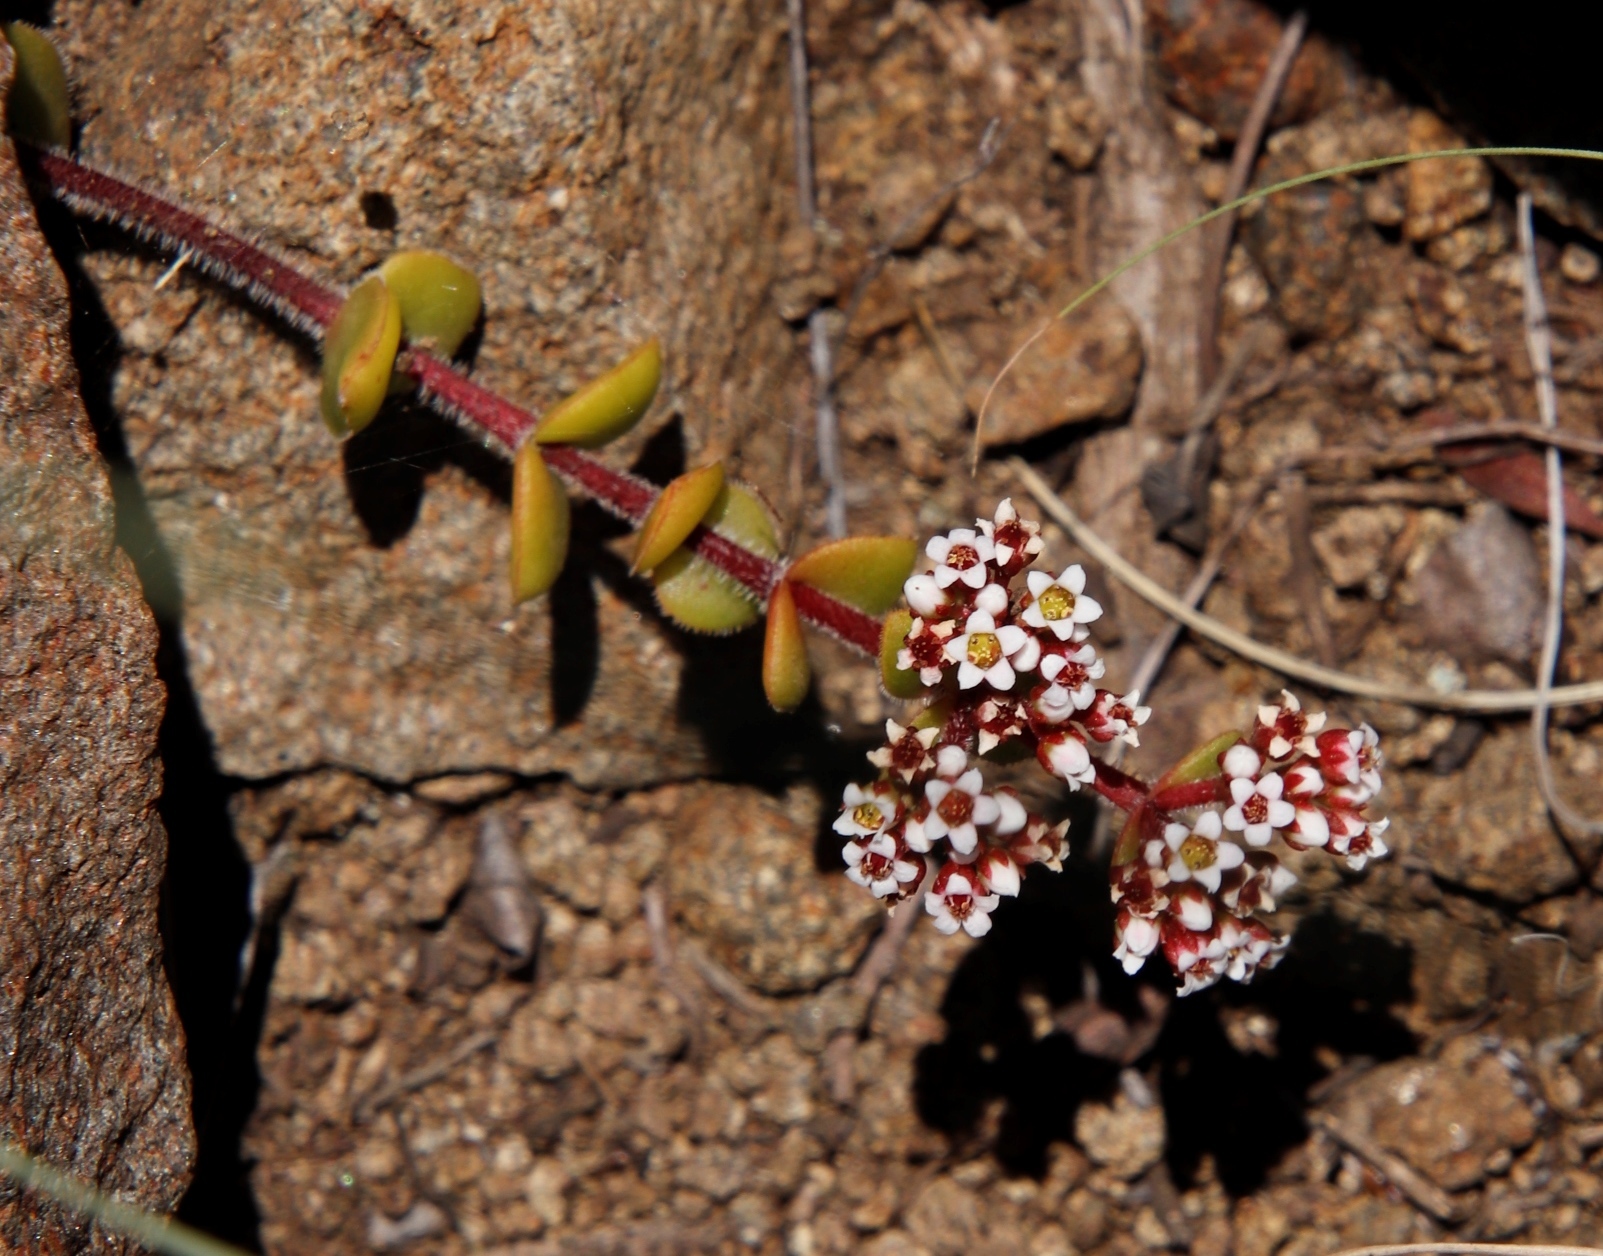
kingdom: Plantae
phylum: Tracheophyta
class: Magnoliopsida
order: Saxifragales
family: Crassulaceae
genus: Crassula
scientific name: Crassula natalensis
